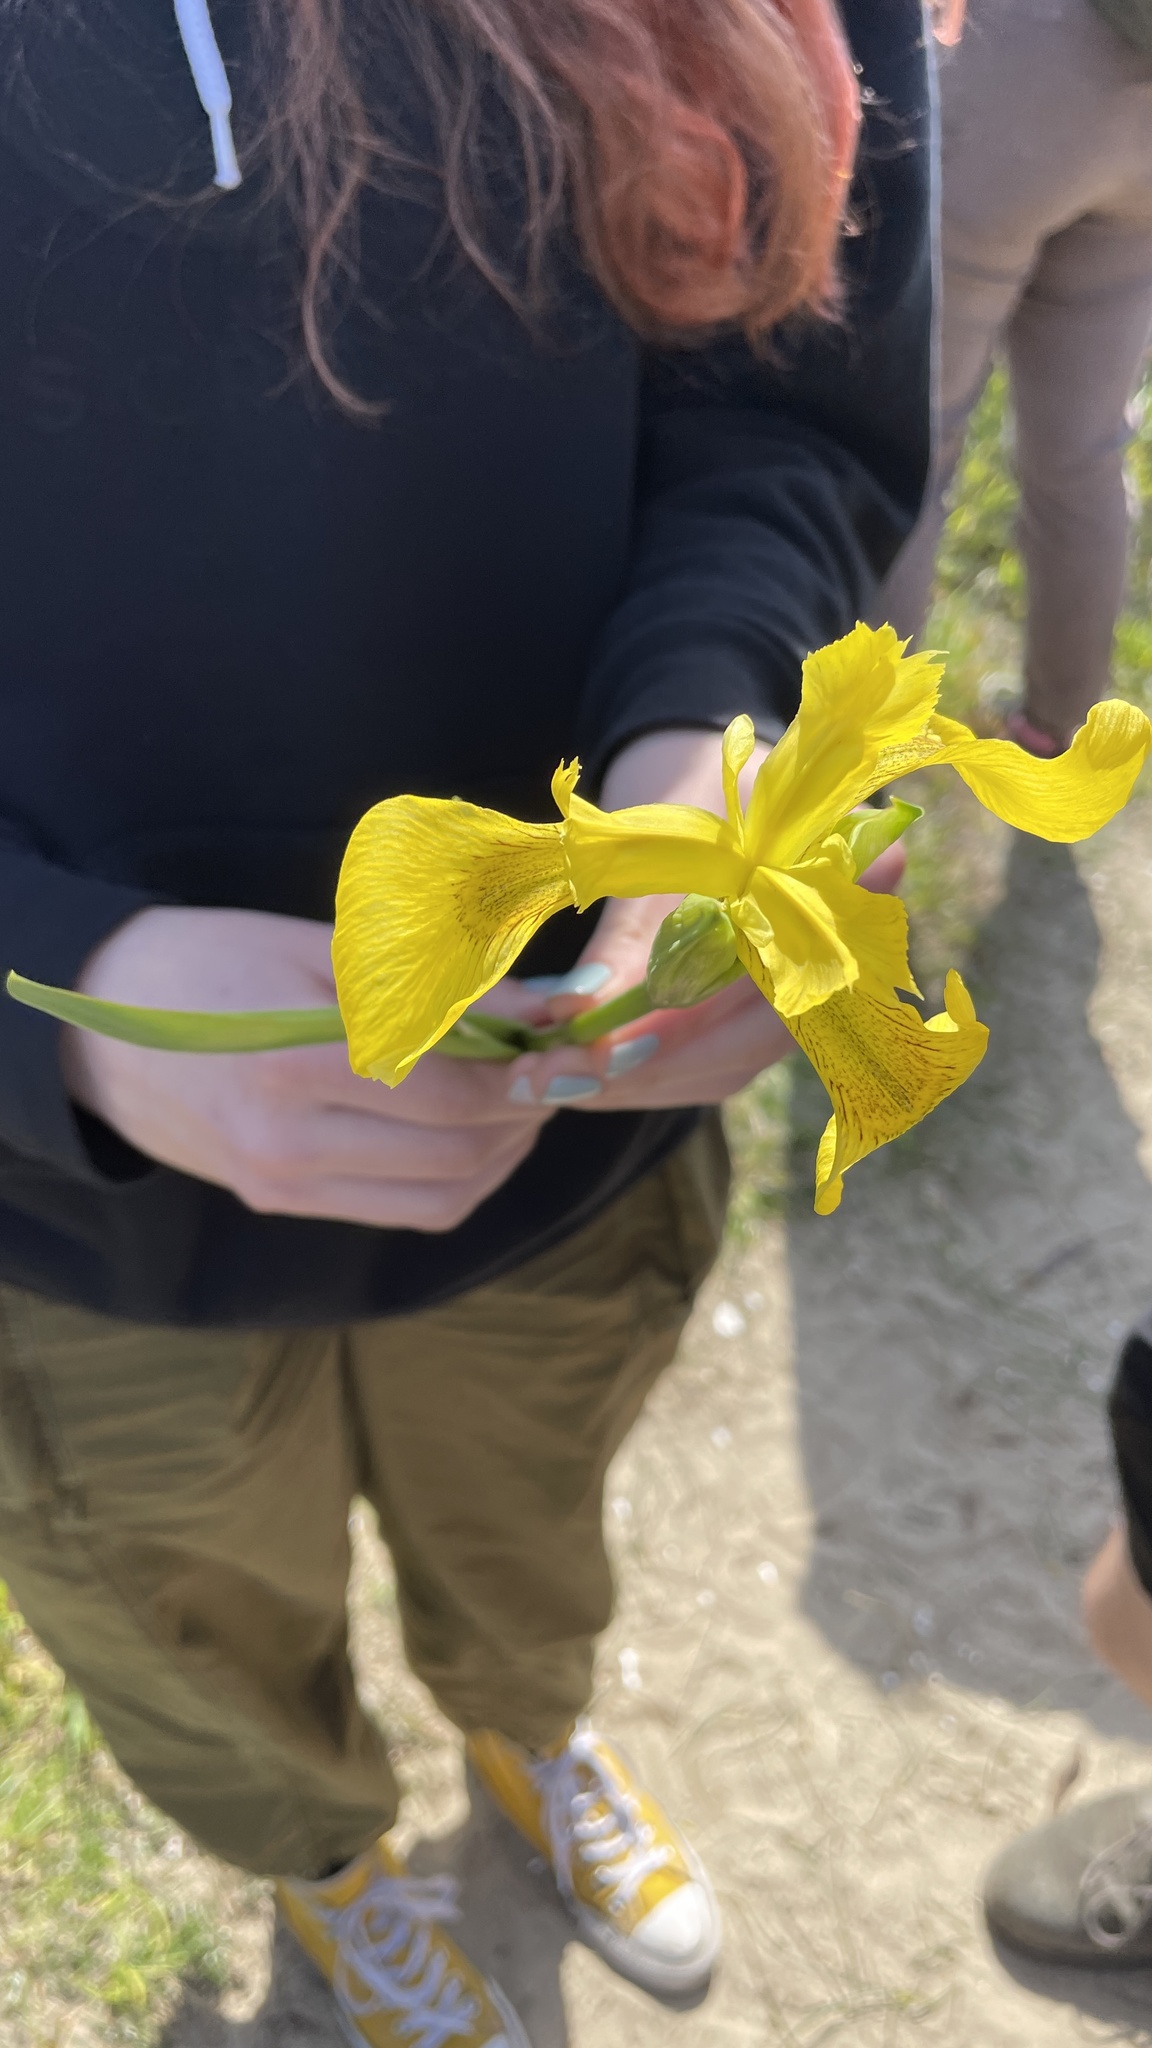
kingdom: Plantae
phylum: Tracheophyta
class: Liliopsida
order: Asparagales
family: Iridaceae
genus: Iris
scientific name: Iris pseudacorus
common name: Yellow flag
